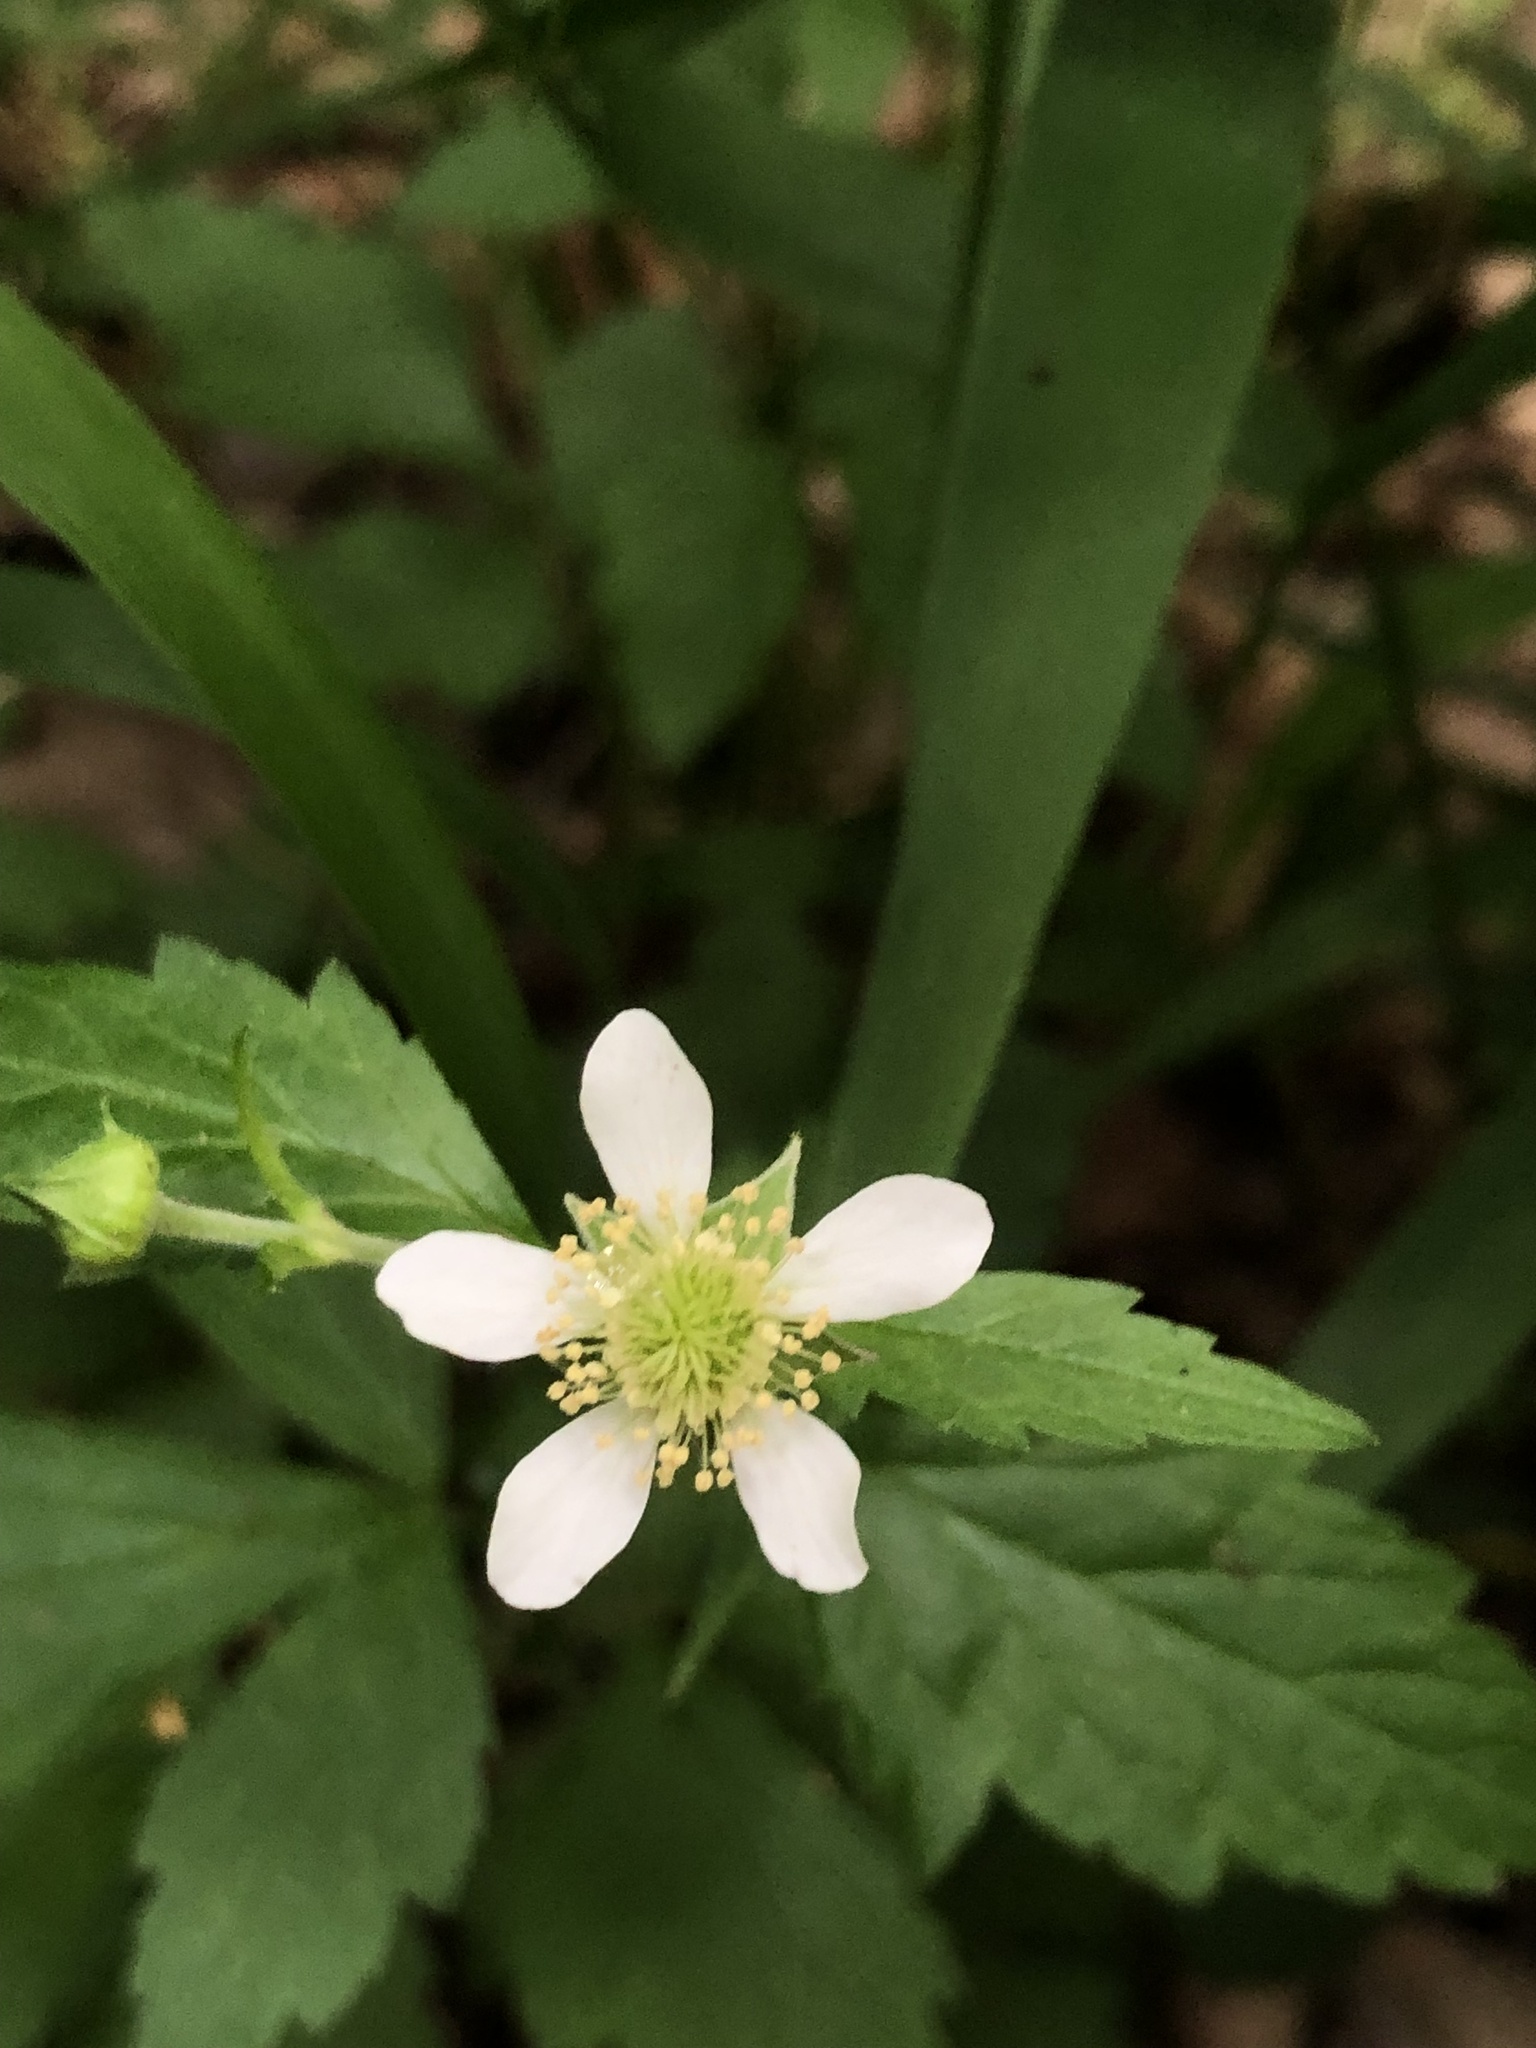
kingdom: Plantae
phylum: Tracheophyta
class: Magnoliopsida
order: Rosales
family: Rosaceae
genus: Geum
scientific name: Geum canadense
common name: White avens
